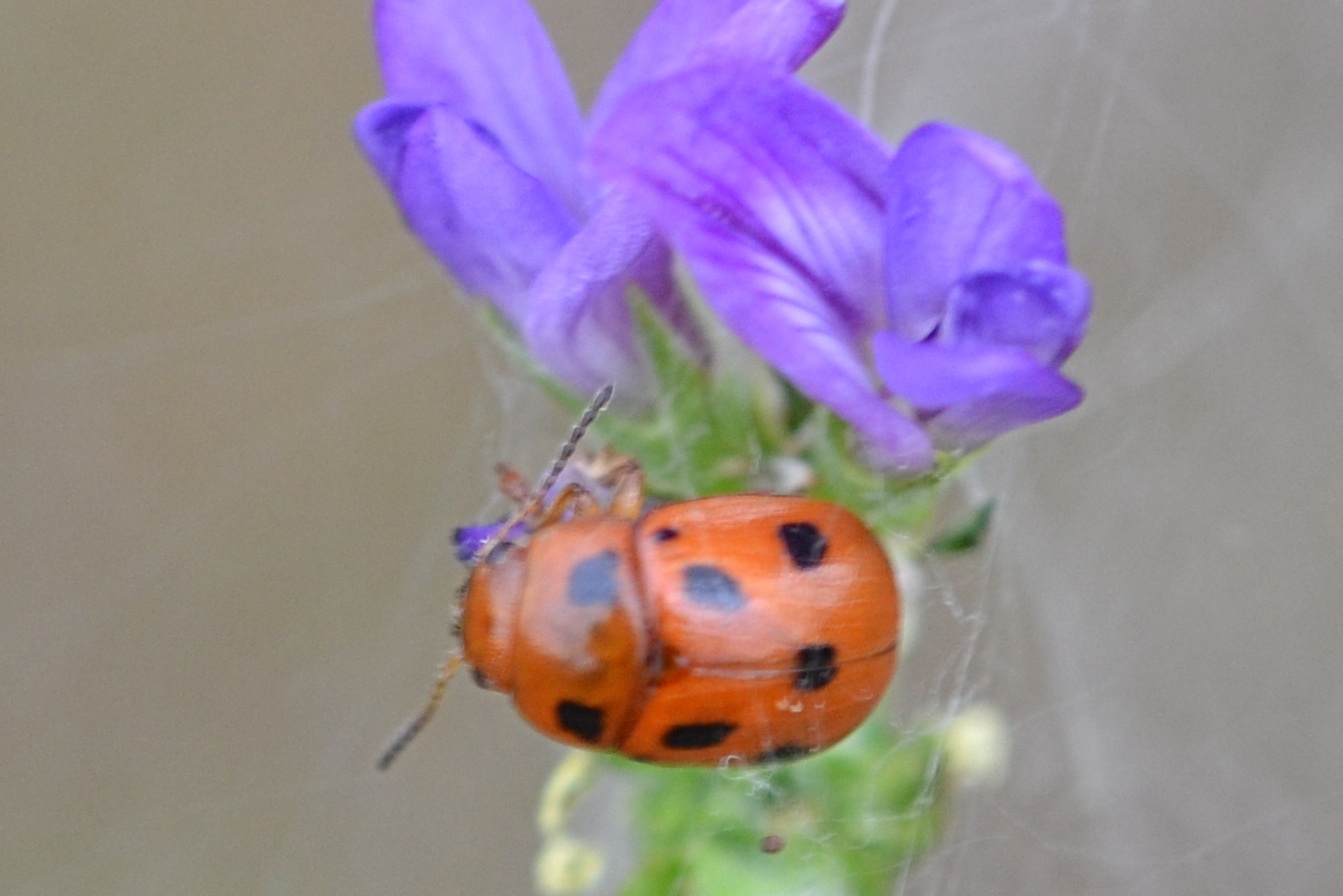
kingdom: Animalia
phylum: Arthropoda
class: Insecta
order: Coleoptera
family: Chrysomelidae
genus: Gonioctena
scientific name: Gonioctena fornicata
